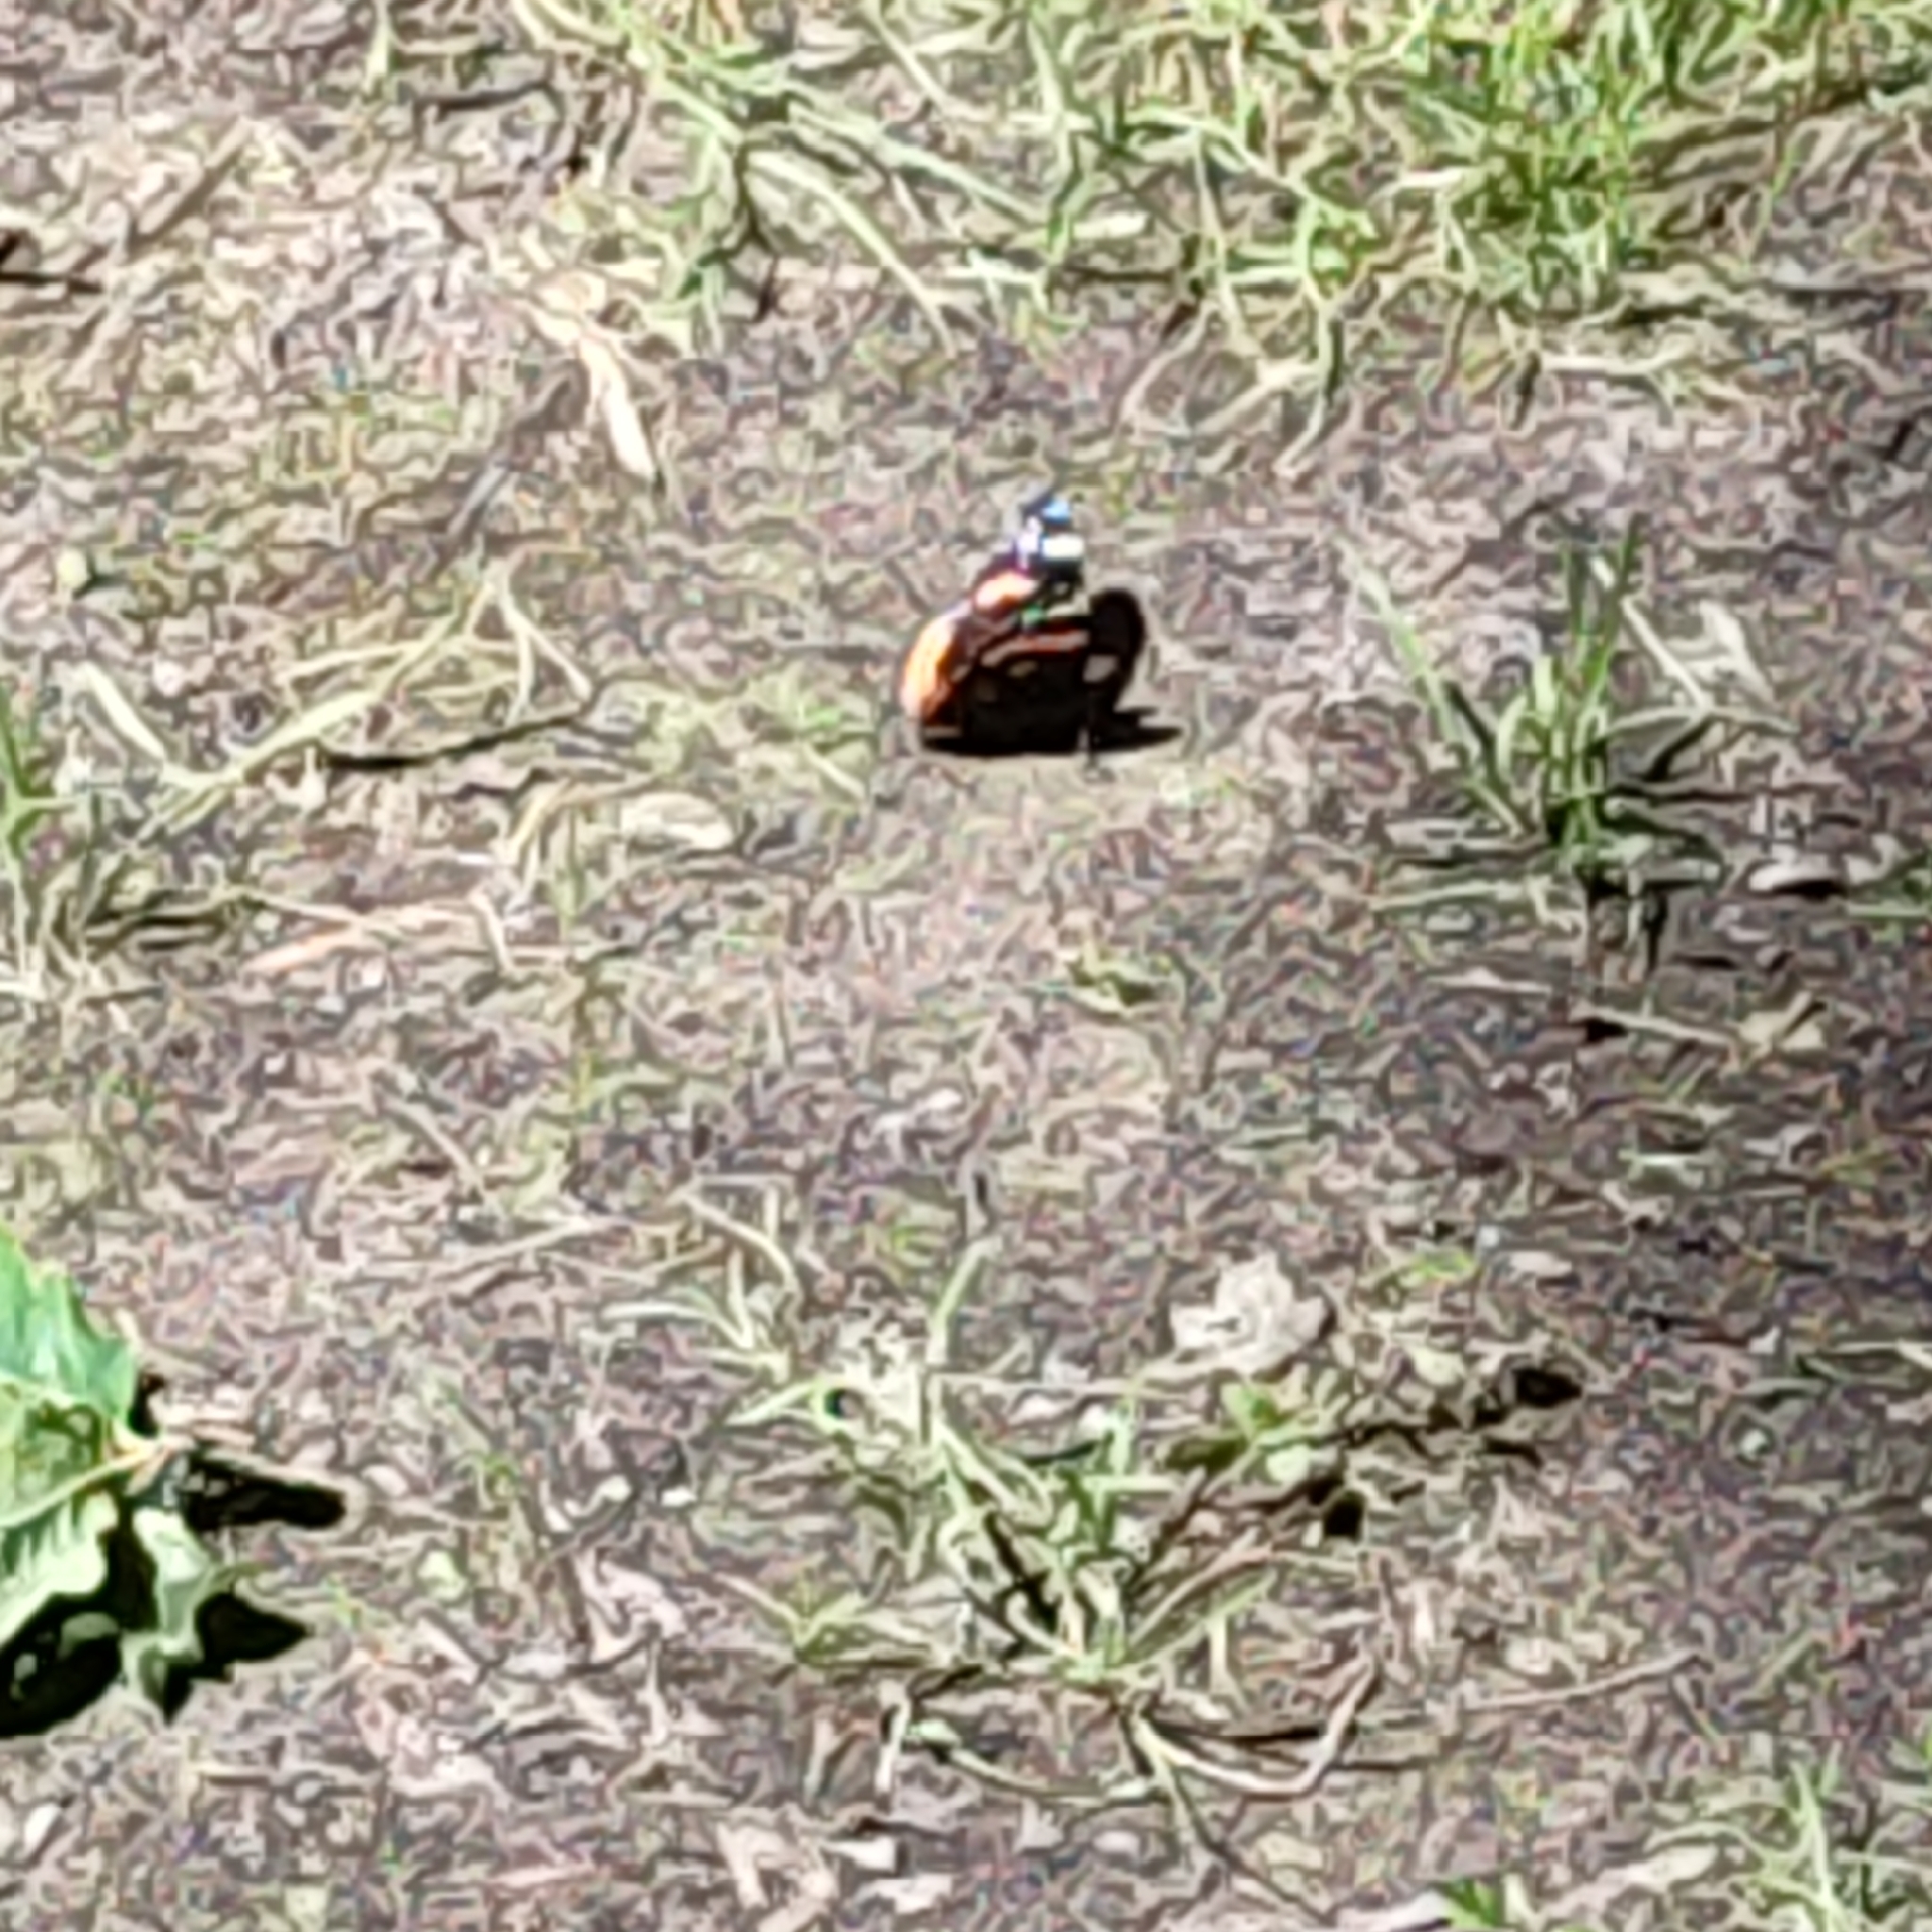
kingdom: Animalia
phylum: Arthropoda
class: Insecta
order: Lepidoptera
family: Nymphalidae
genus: Vanessa
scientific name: Vanessa atalanta
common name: Red admiral
